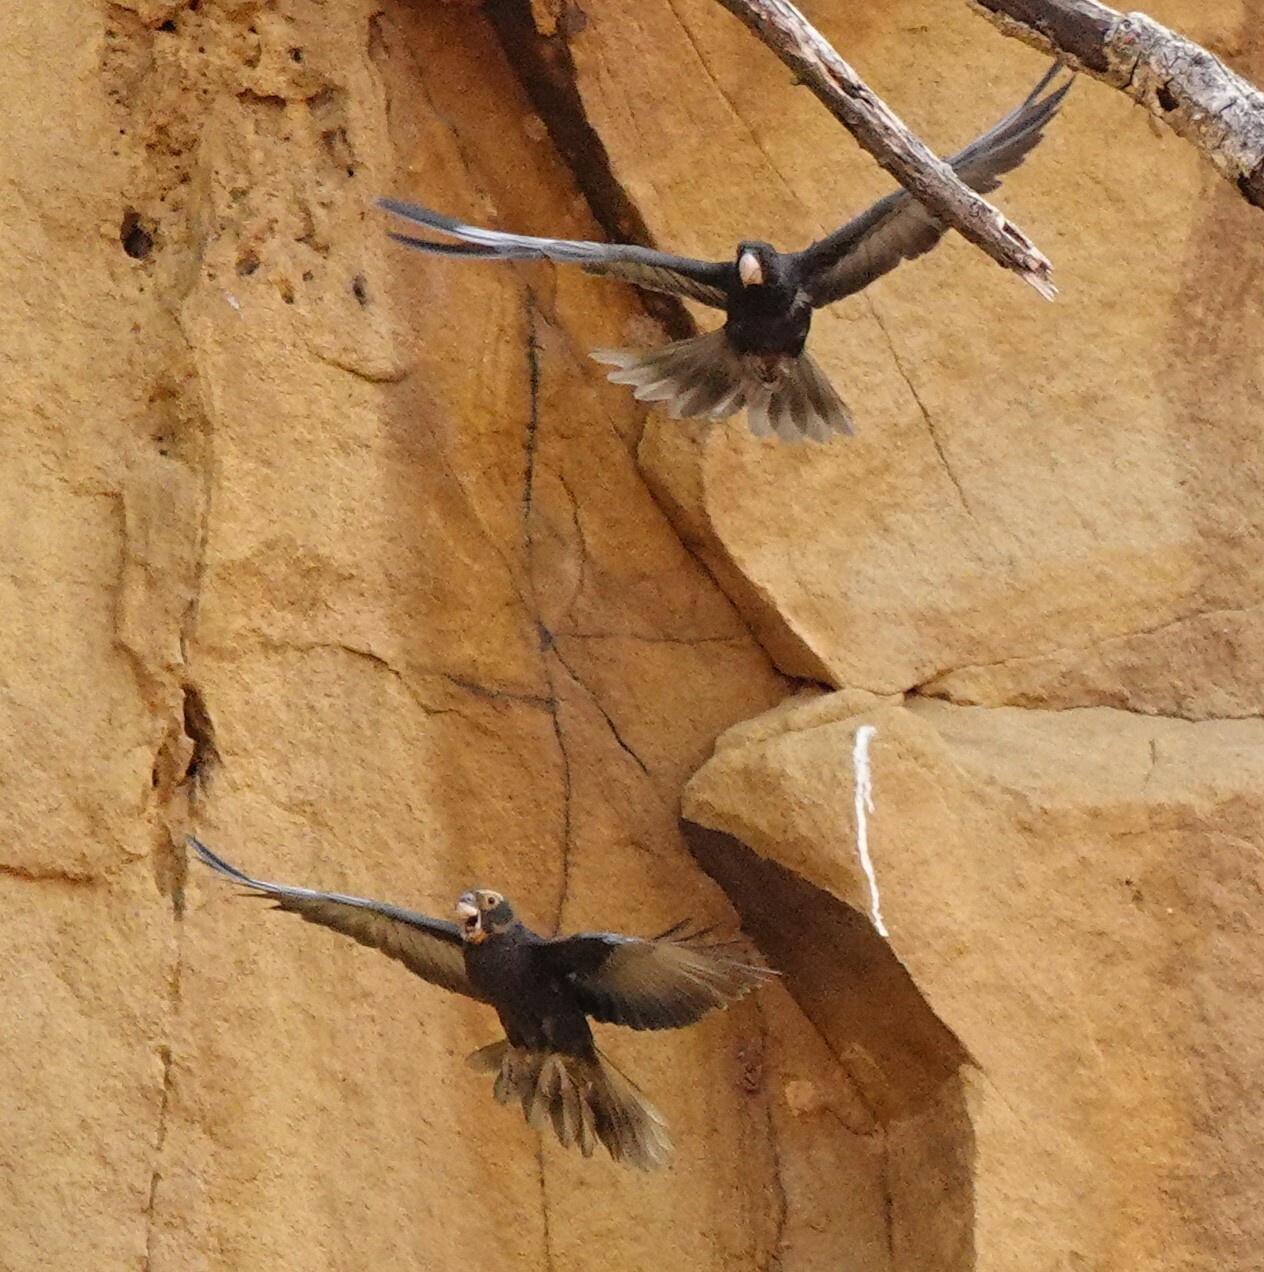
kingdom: Animalia
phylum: Chordata
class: Aves
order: Psittaciformes
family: Psittacidae
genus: Coracopsis
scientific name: Coracopsis vasa
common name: Greater vasa parrot
